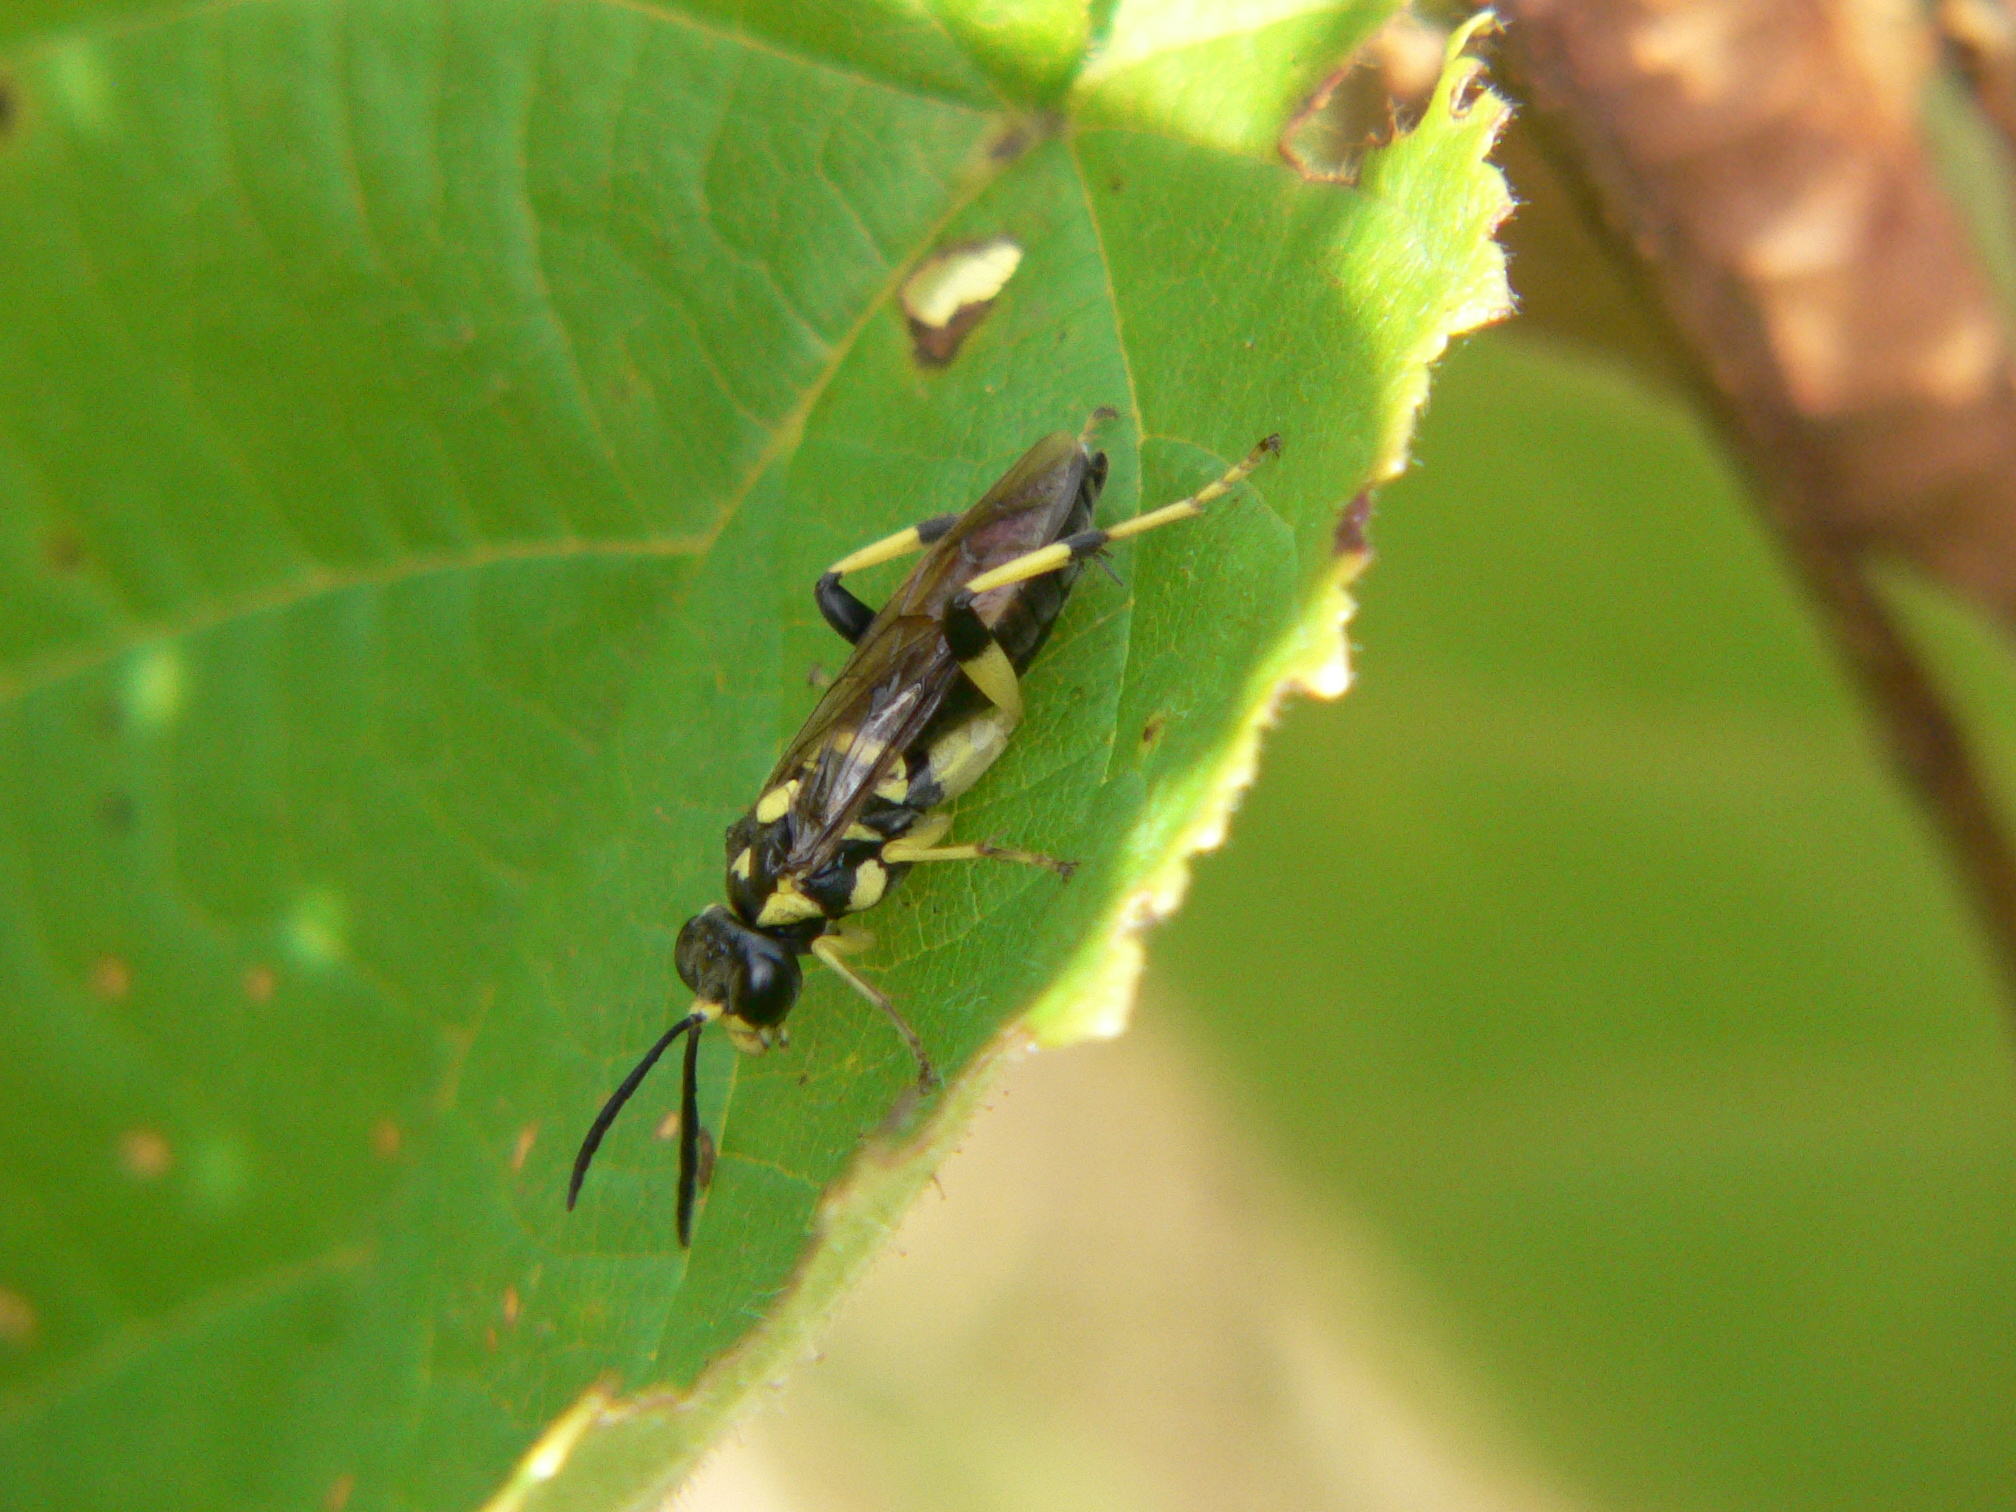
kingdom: Animalia
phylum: Arthropoda
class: Insecta
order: Hymenoptera
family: Tenthredinidae
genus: Macrophya
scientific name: Macrophya formosa
